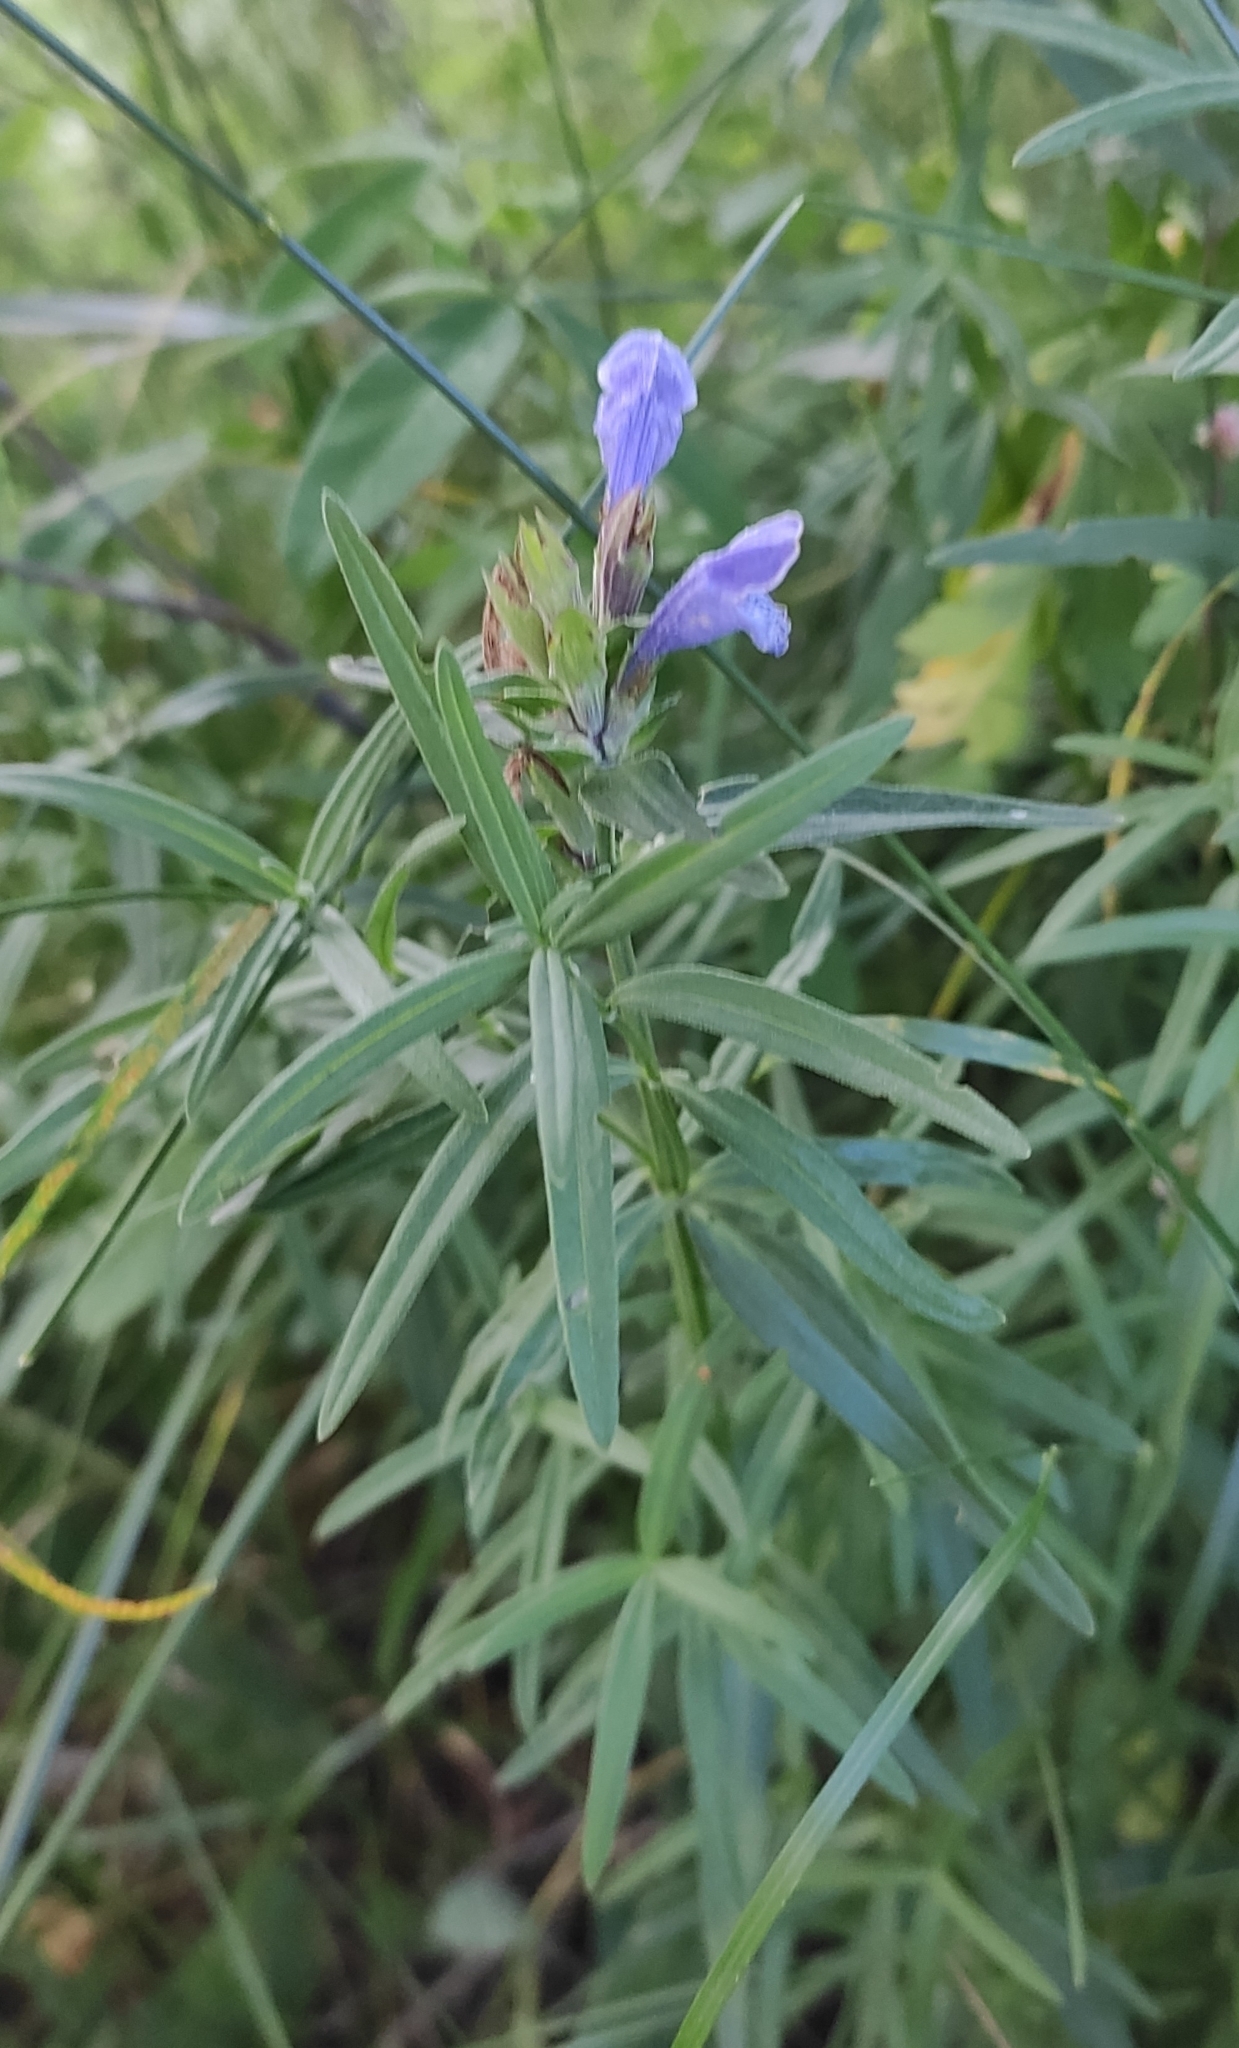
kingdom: Plantae
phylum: Tracheophyta
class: Magnoliopsida
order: Lamiales
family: Lamiaceae
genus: Dracocephalum
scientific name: Dracocephalum ruyschiana
